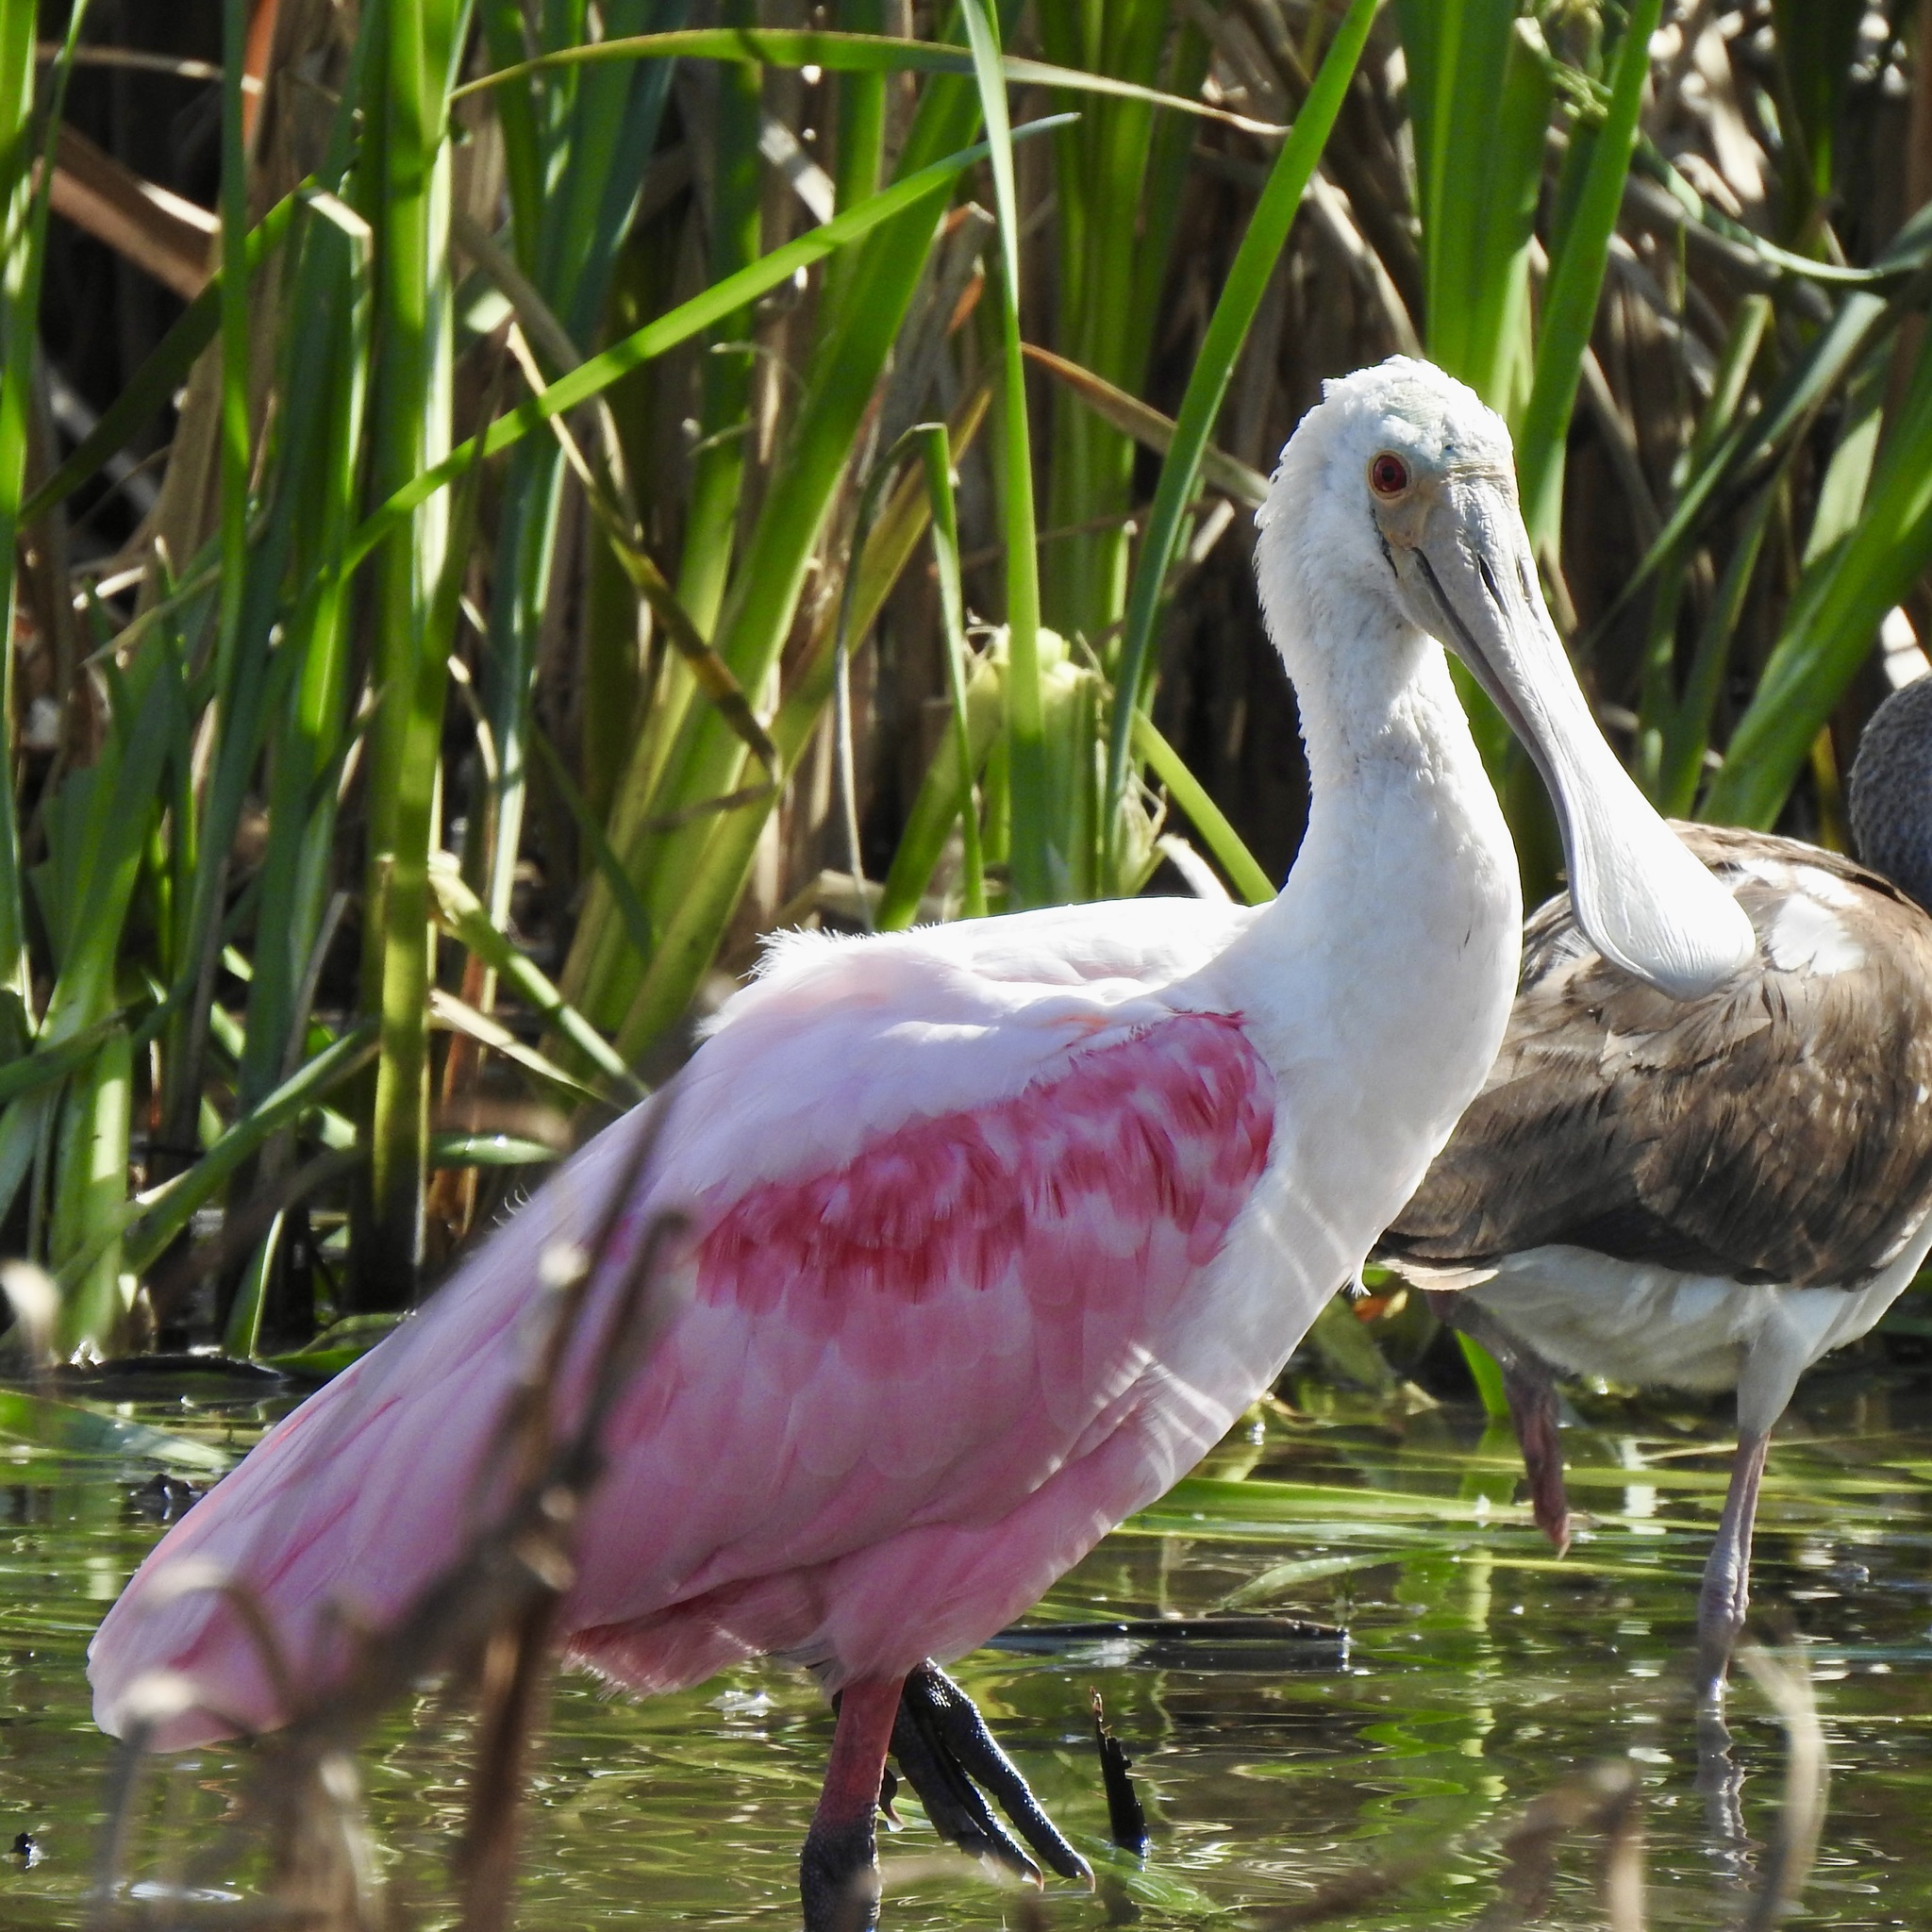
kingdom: Animalia
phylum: Chordata
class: Aves
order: Pelecaniformes
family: Threskiornithidae
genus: Platalea
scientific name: Platalea ajaja
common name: Roseate spoonbill
